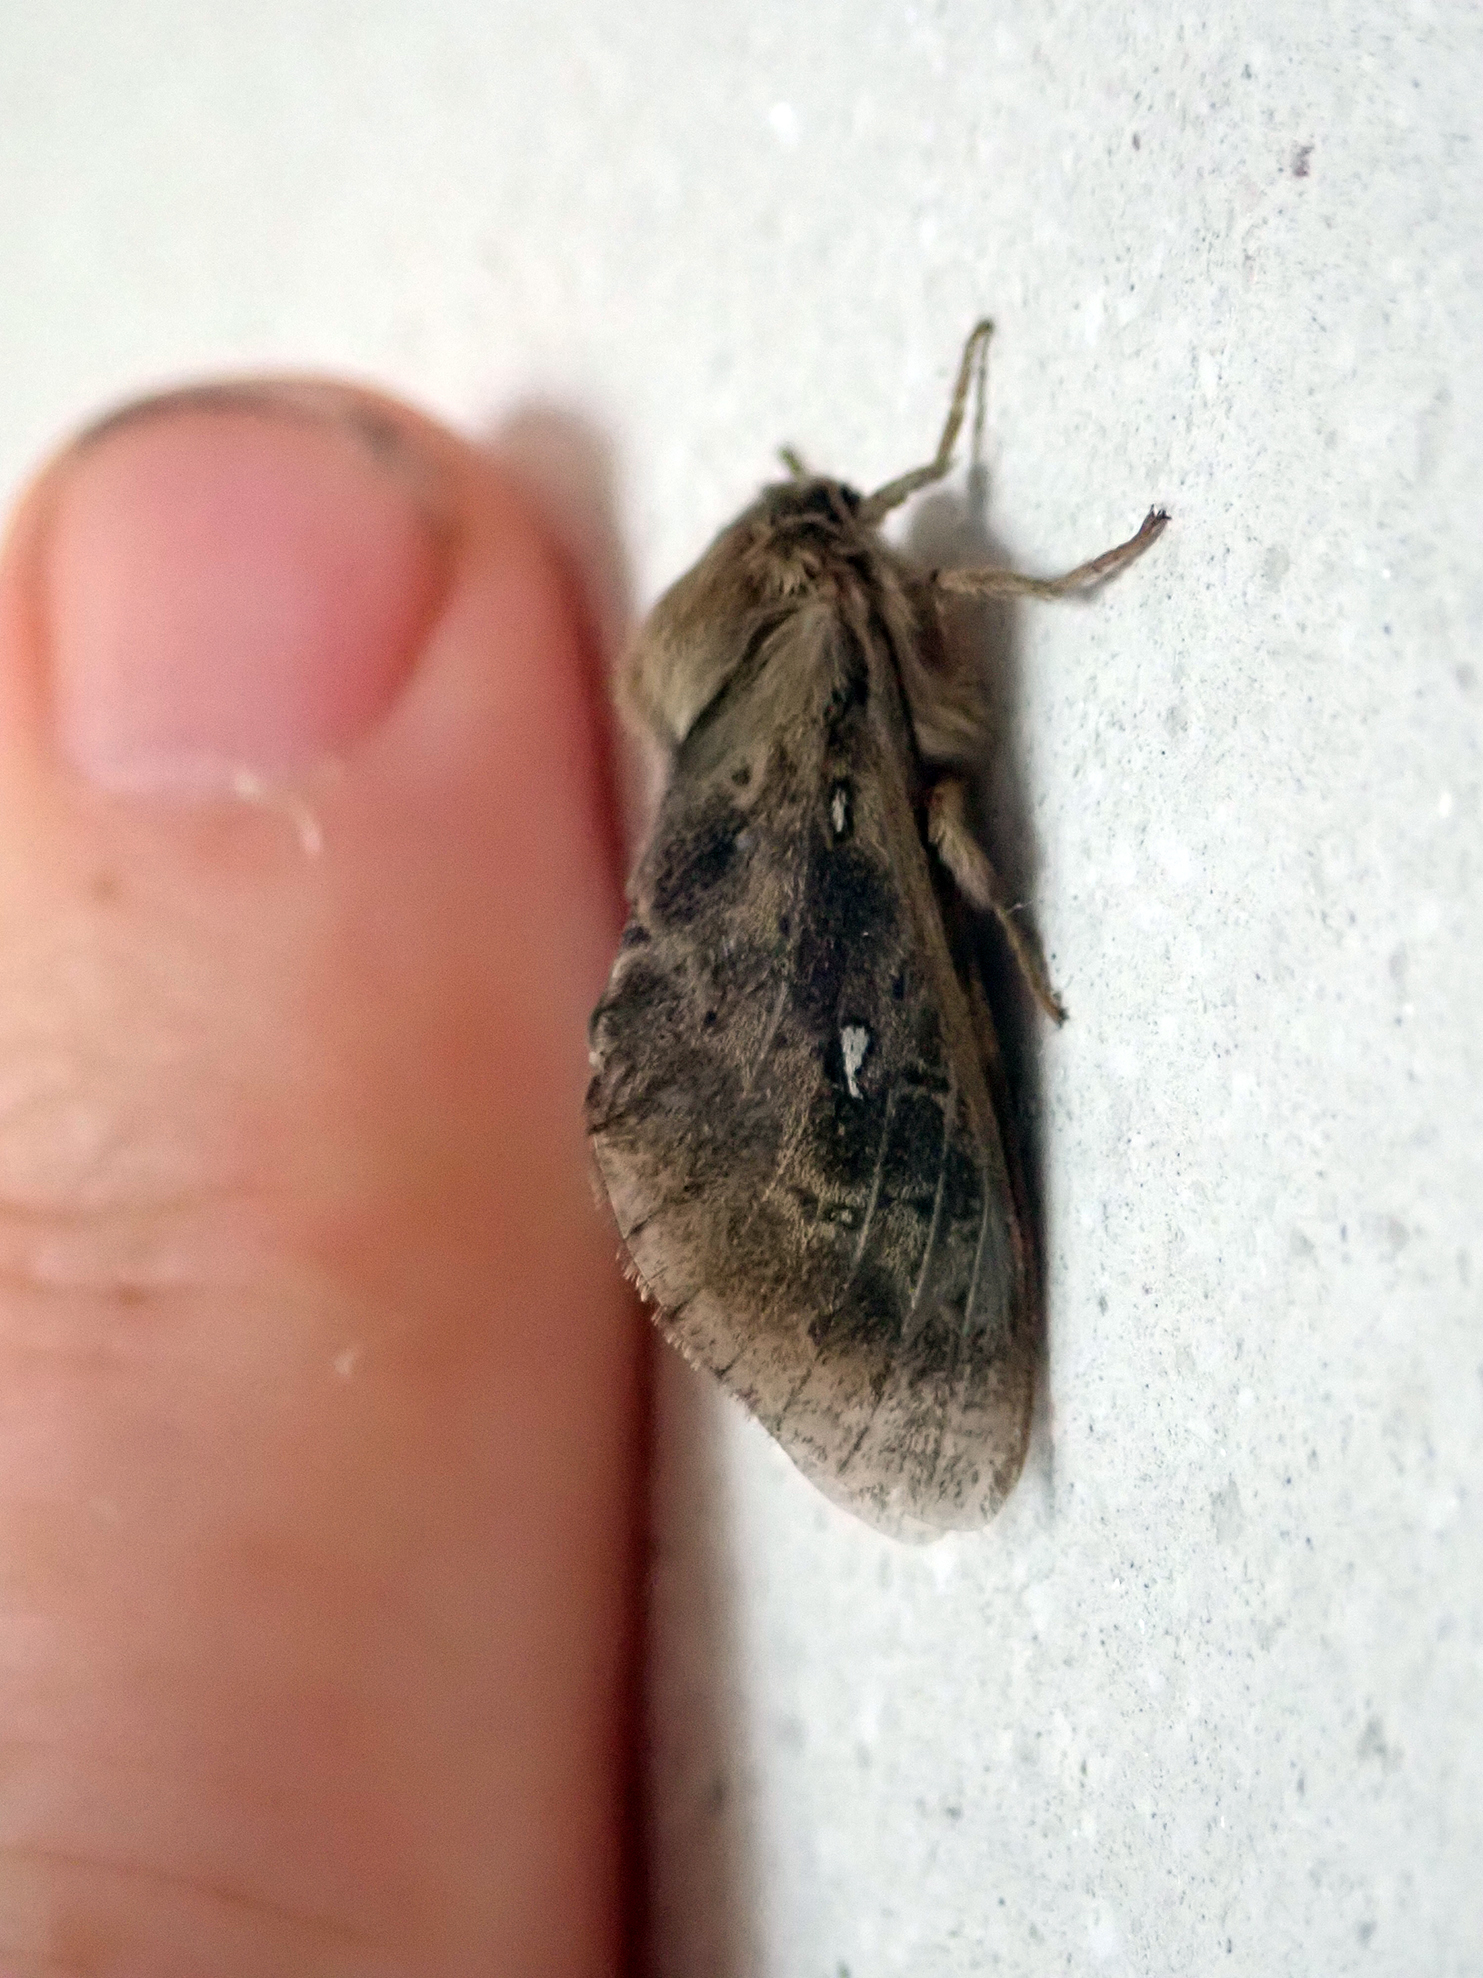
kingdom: Animalia
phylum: Arthropoda
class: Insecta
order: Lepidoptera
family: Hepialidae
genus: Wiseana
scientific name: Wiseana cervinata
